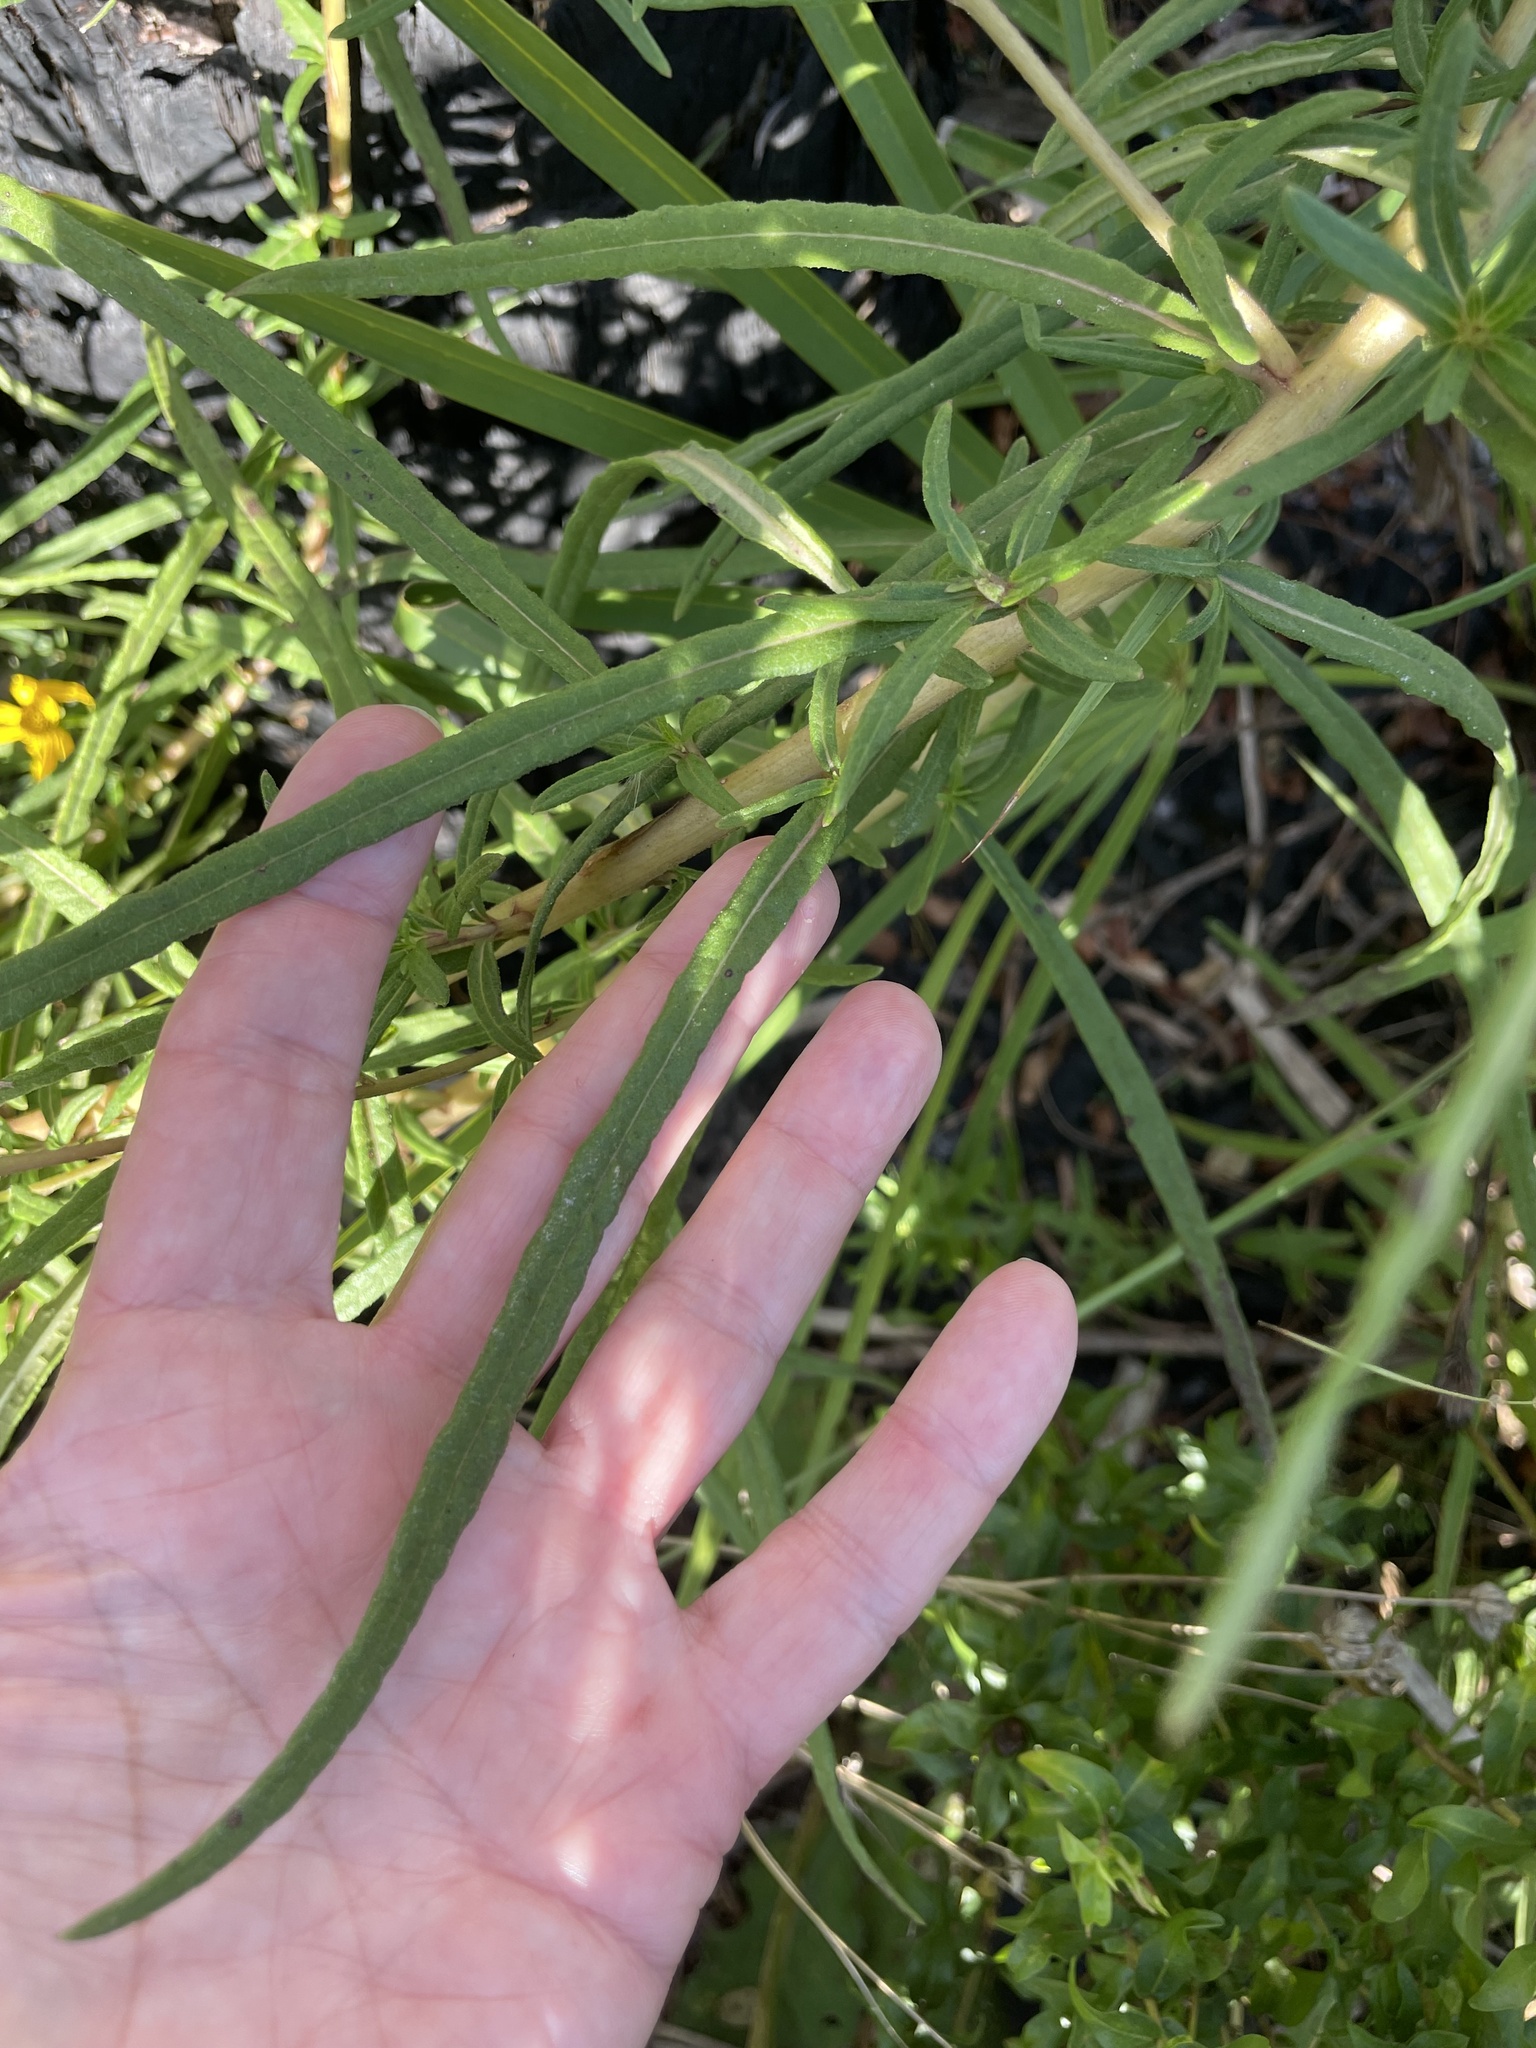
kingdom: Plantae
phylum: Tracheophyta
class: Magnoliopsida
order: Asterales
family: Asteraceae
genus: Helianthus
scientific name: Helianthus angustifolius
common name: Swamp sunflower
